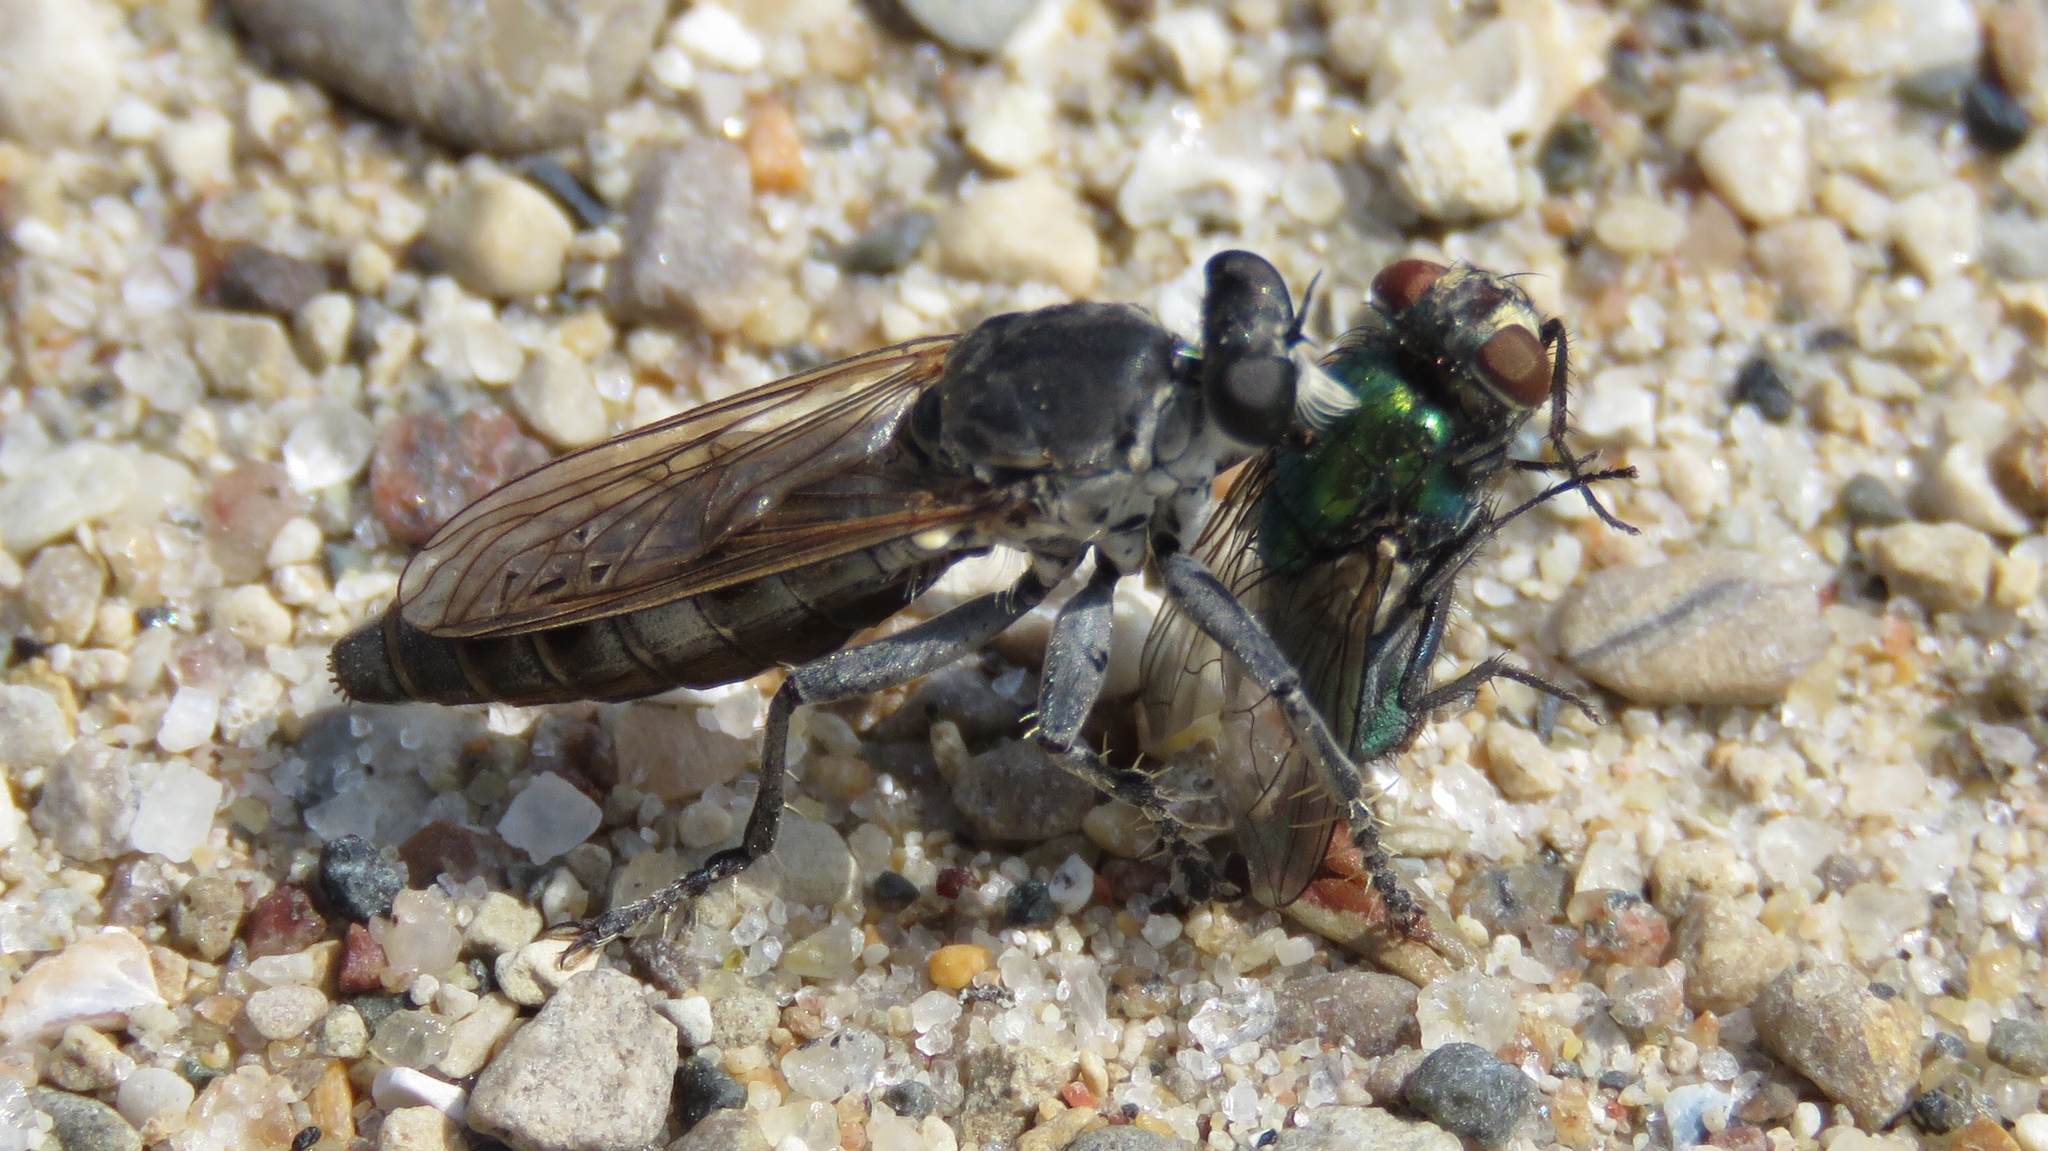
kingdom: Animalia
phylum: Arthropoda
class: Insecta
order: Diptera
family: Asilidae
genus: Stichopogon
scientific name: Stichopogon trifasciatus
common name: Three-banded robber fly
